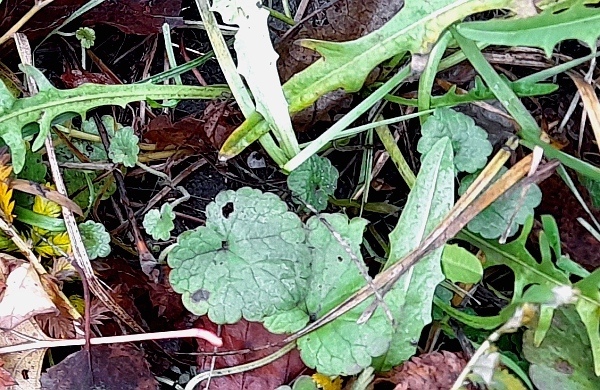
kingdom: Plantae
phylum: Tracheophyta
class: Magnoliopsida
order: Lamiales
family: Lamiaceae
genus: Glechoma
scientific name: Glechoma hederacea
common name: Ground ivy
